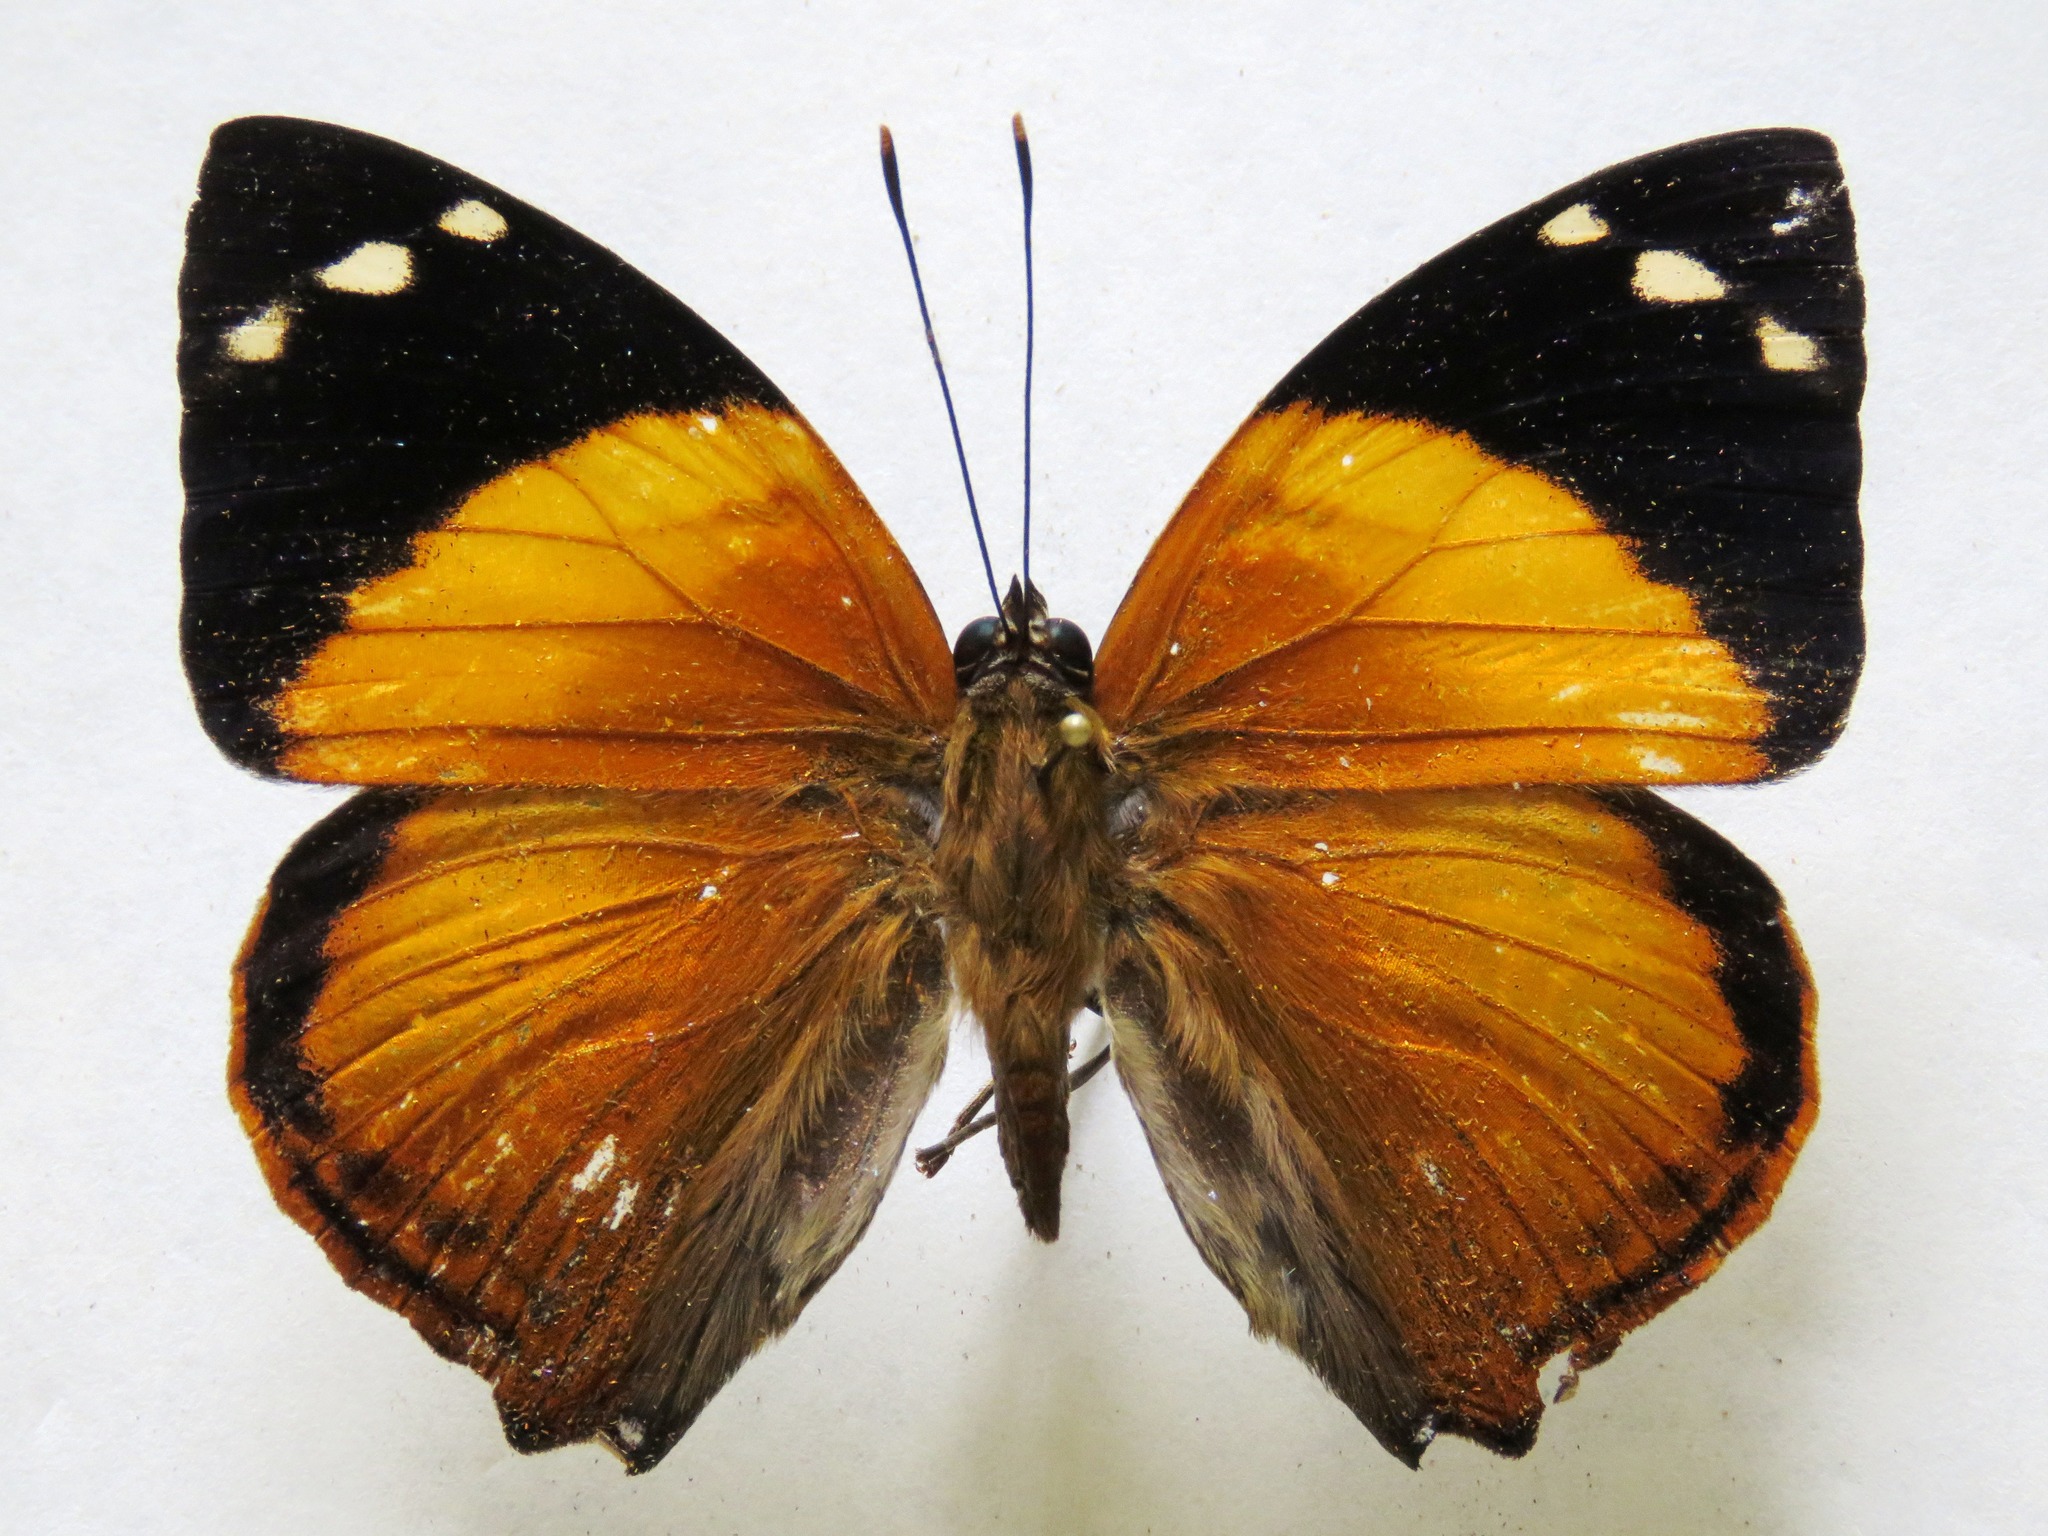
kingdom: Animalia
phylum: Arthropoda
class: Insecta
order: Lepidoptera
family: Nymphalidae
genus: Smyrna
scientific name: Smyrna blomfildia
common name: Blomfild's beauty
